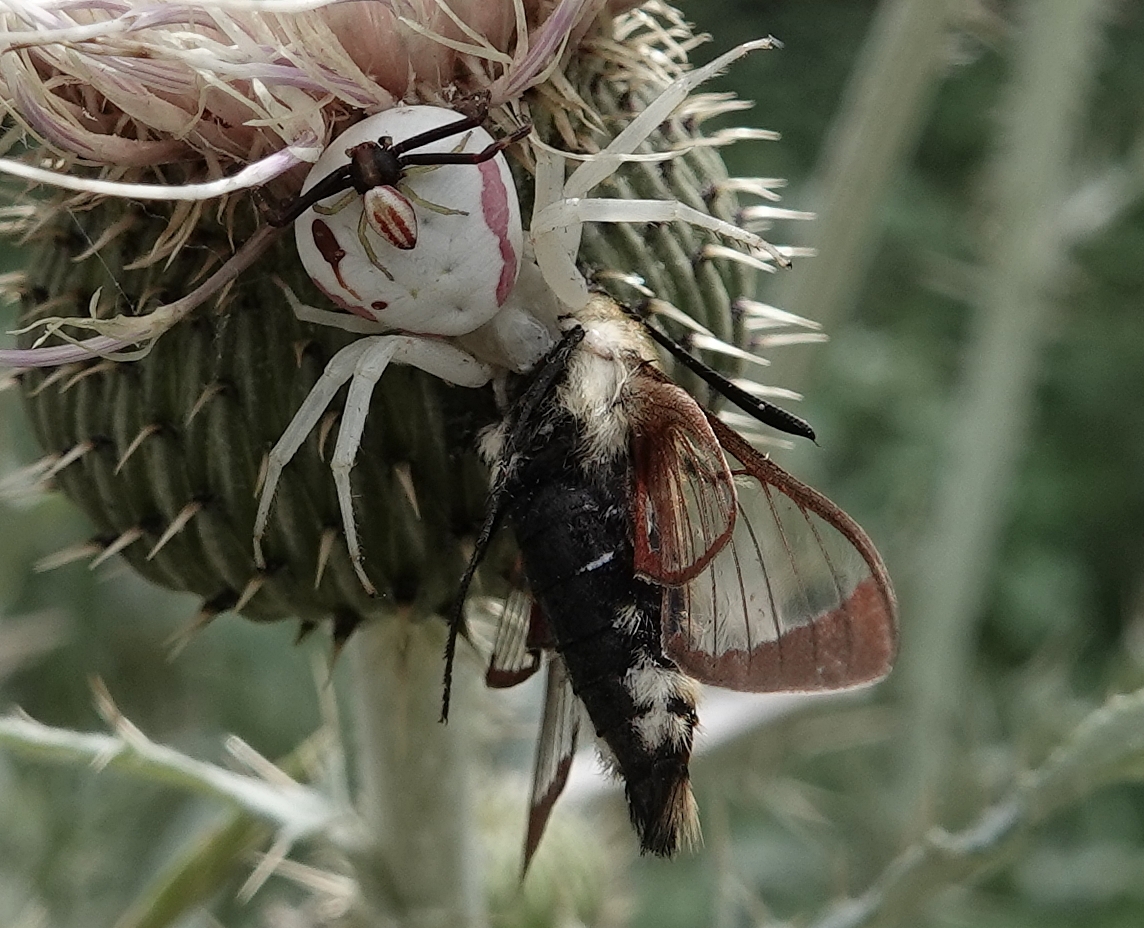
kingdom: Animalia
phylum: Arthropoda
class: Arachnida
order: Araneae
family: Thomisidae
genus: Misumena
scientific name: Misumena vatia
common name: Goldenrod crab spider
